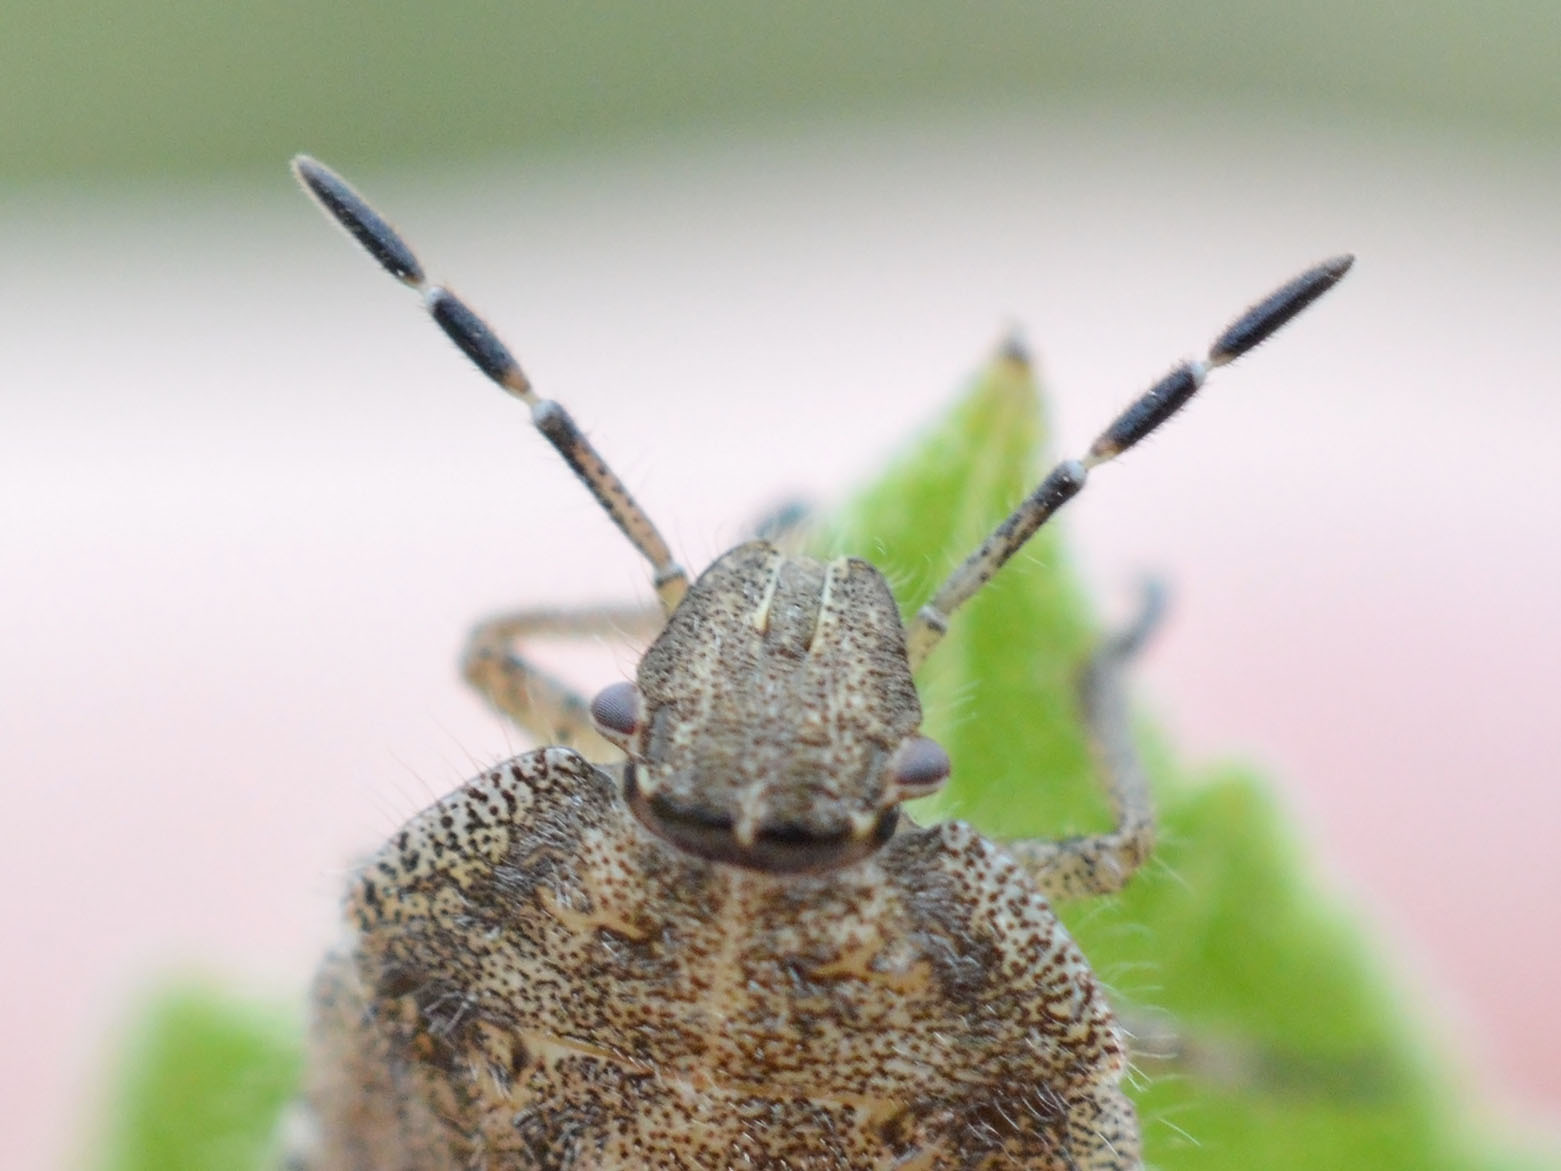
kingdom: Animalia
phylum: Arthropoda
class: Insecta
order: Hemiptera
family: Pentatomidae
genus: Dolycoris
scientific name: Dolycoris baccarum
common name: Sloe bug
